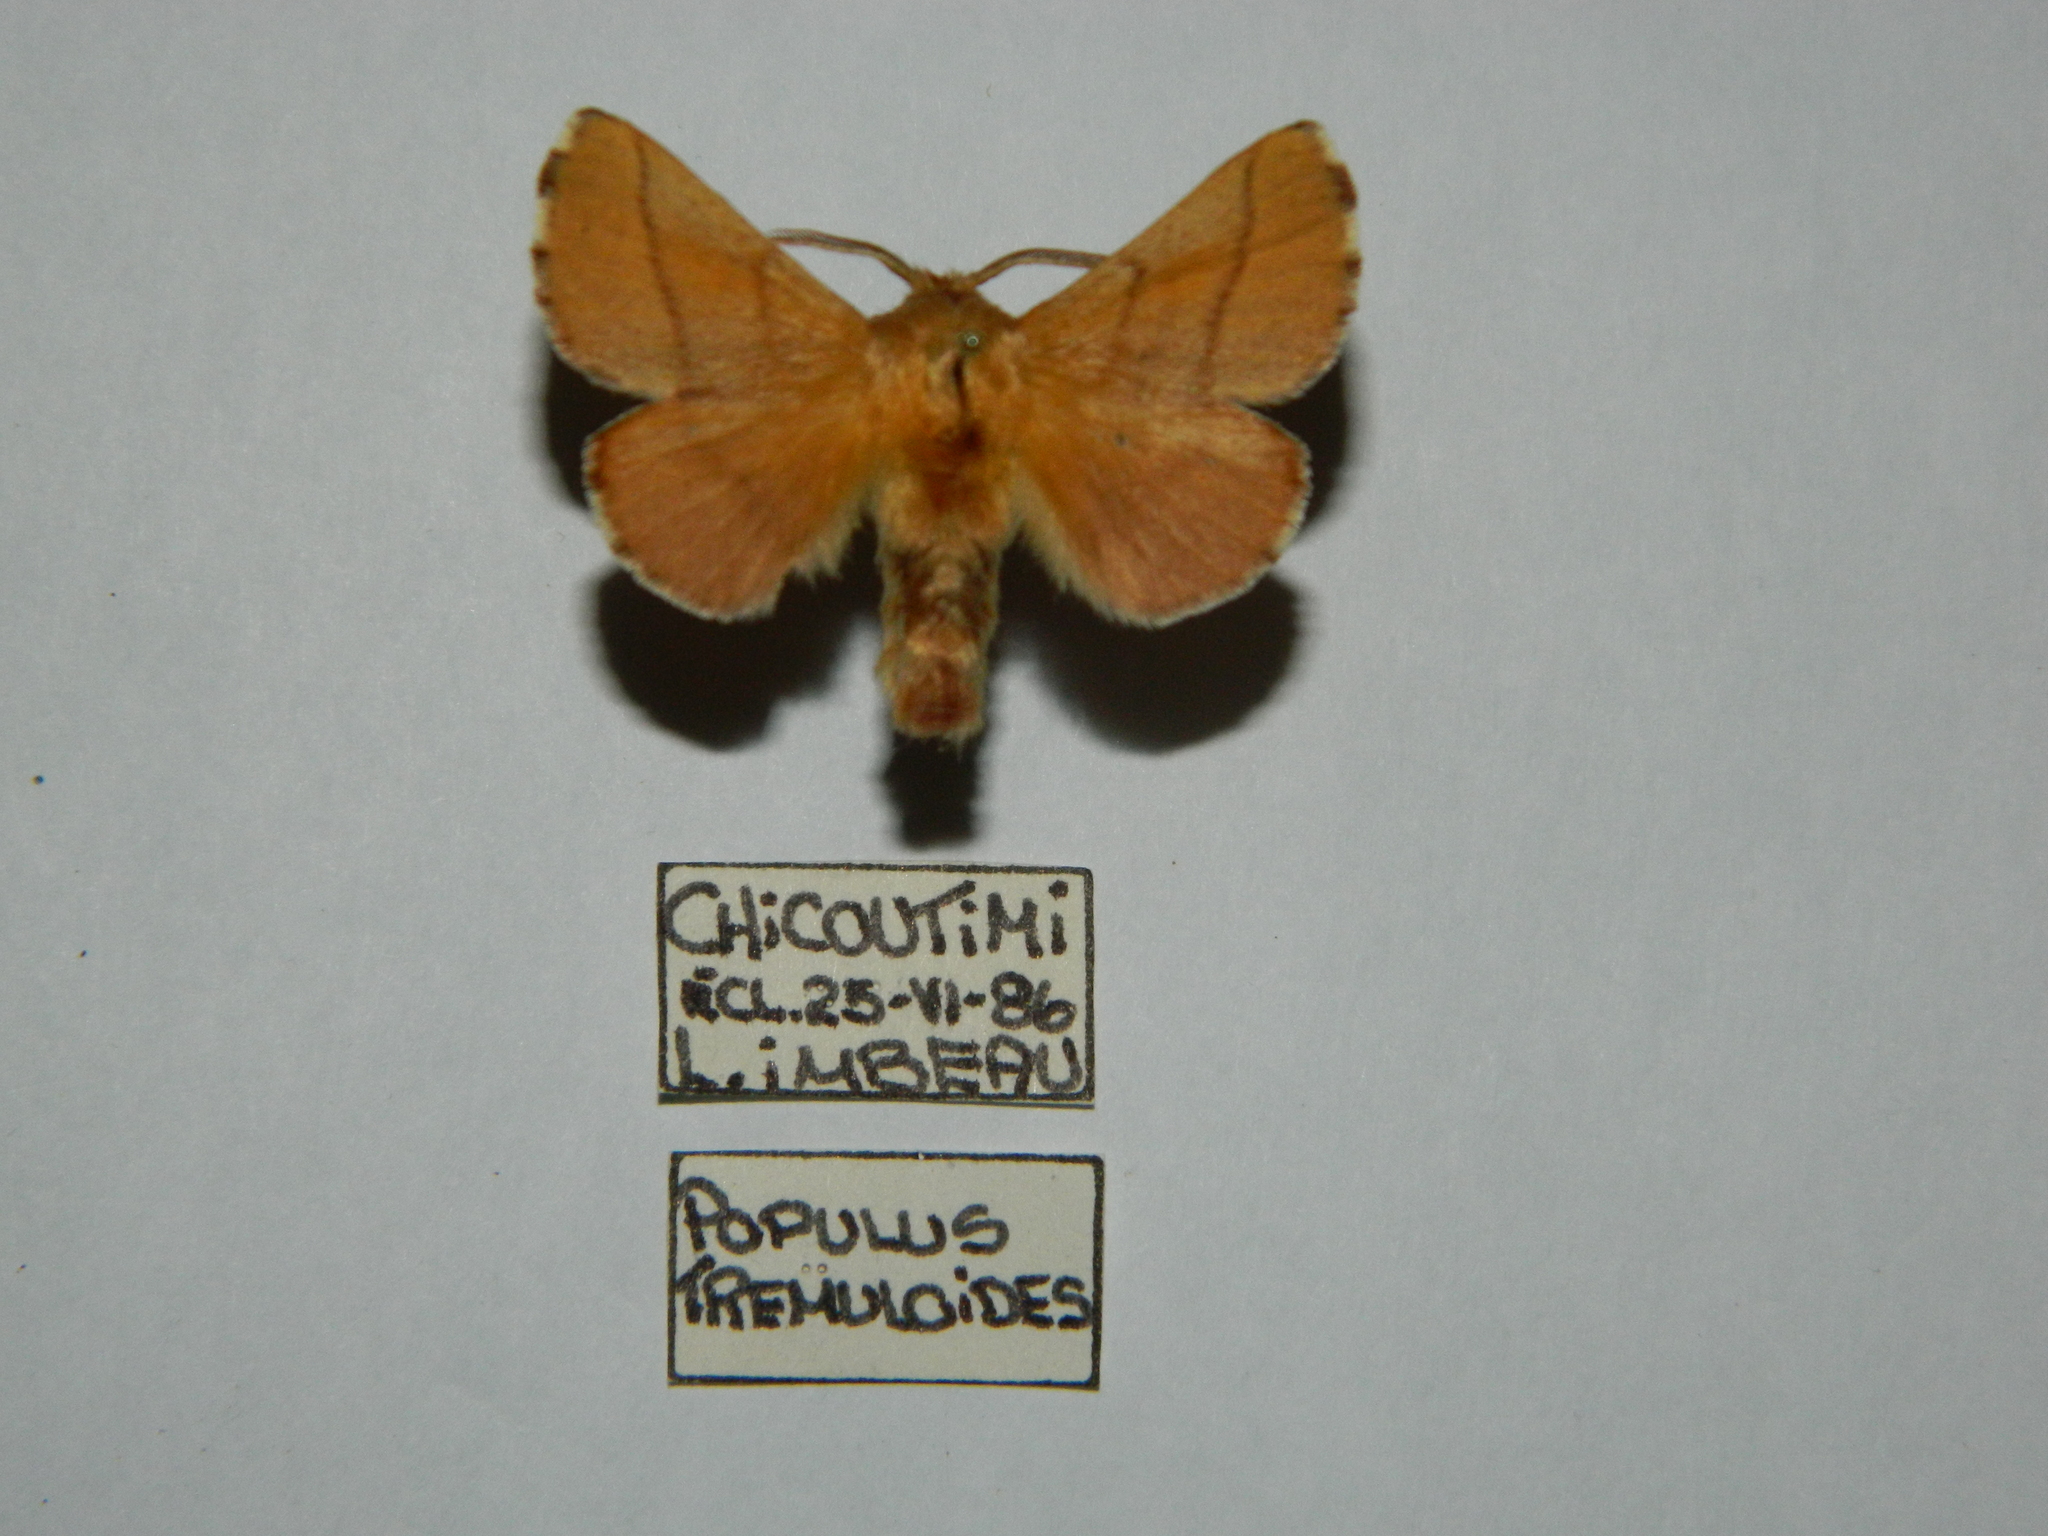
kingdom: Animalia
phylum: Arthropoda
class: Insecta
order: Lepidoptera
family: Lasiocampidae
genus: Malacosoma
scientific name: Malacosoma disstria
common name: Forest tent caterpillar
